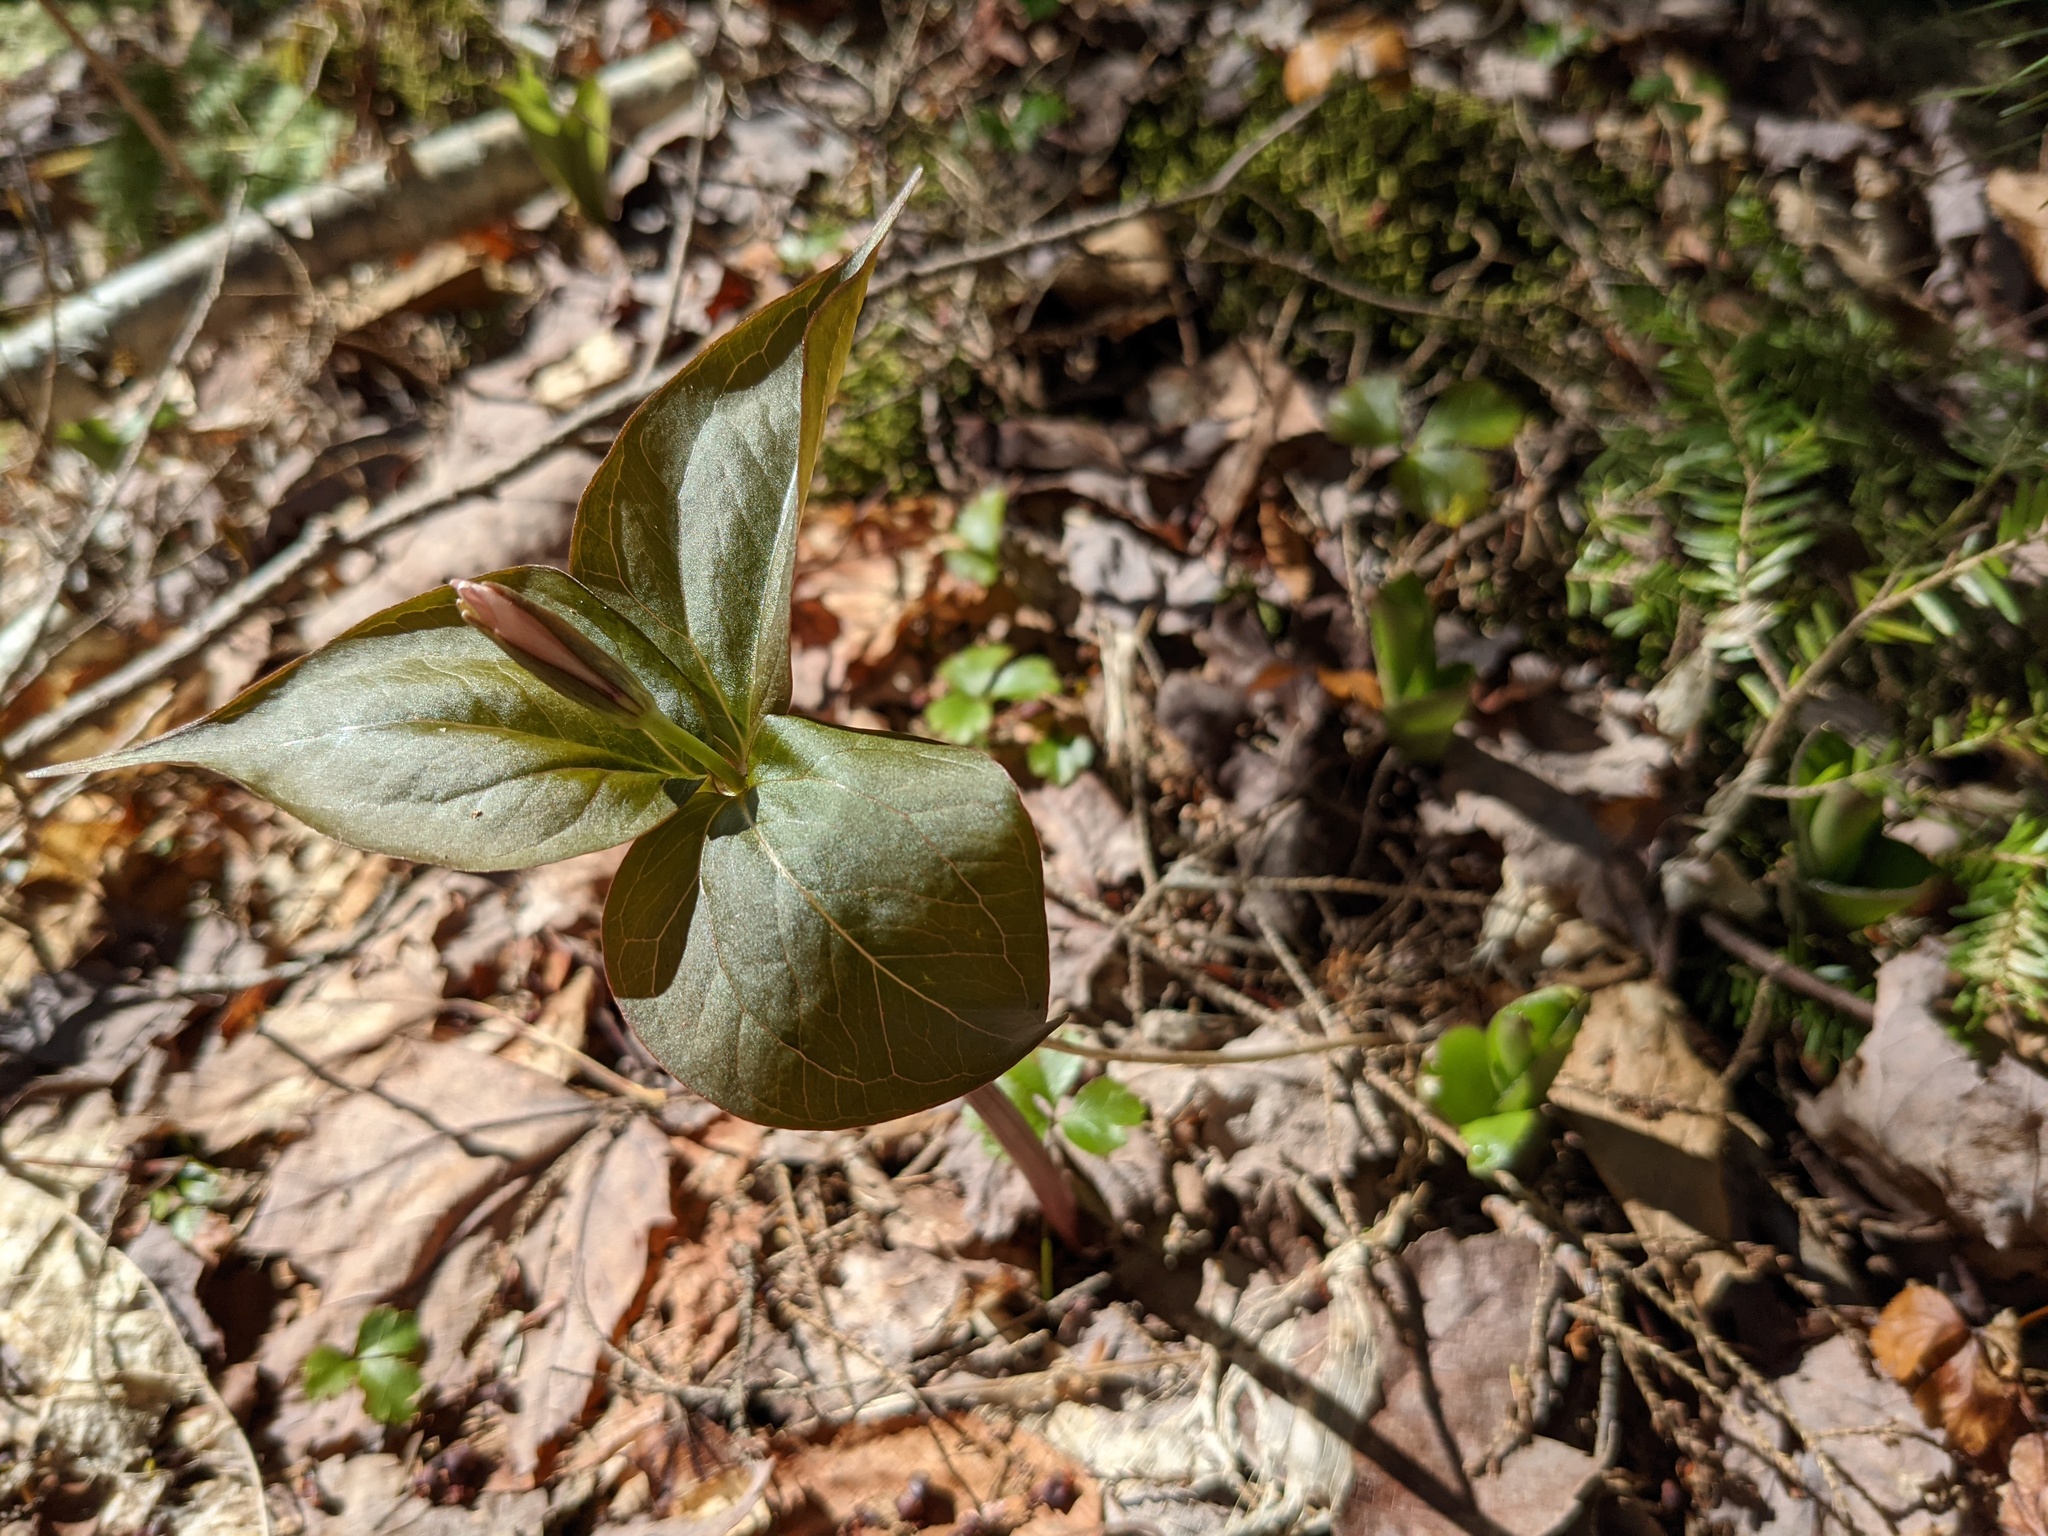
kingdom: Plantae
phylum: Tracheophyta
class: Liliopsida
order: Liliales
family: Melanthiaceae
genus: Trillium
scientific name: Trillium undulatum
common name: Paint trillium
